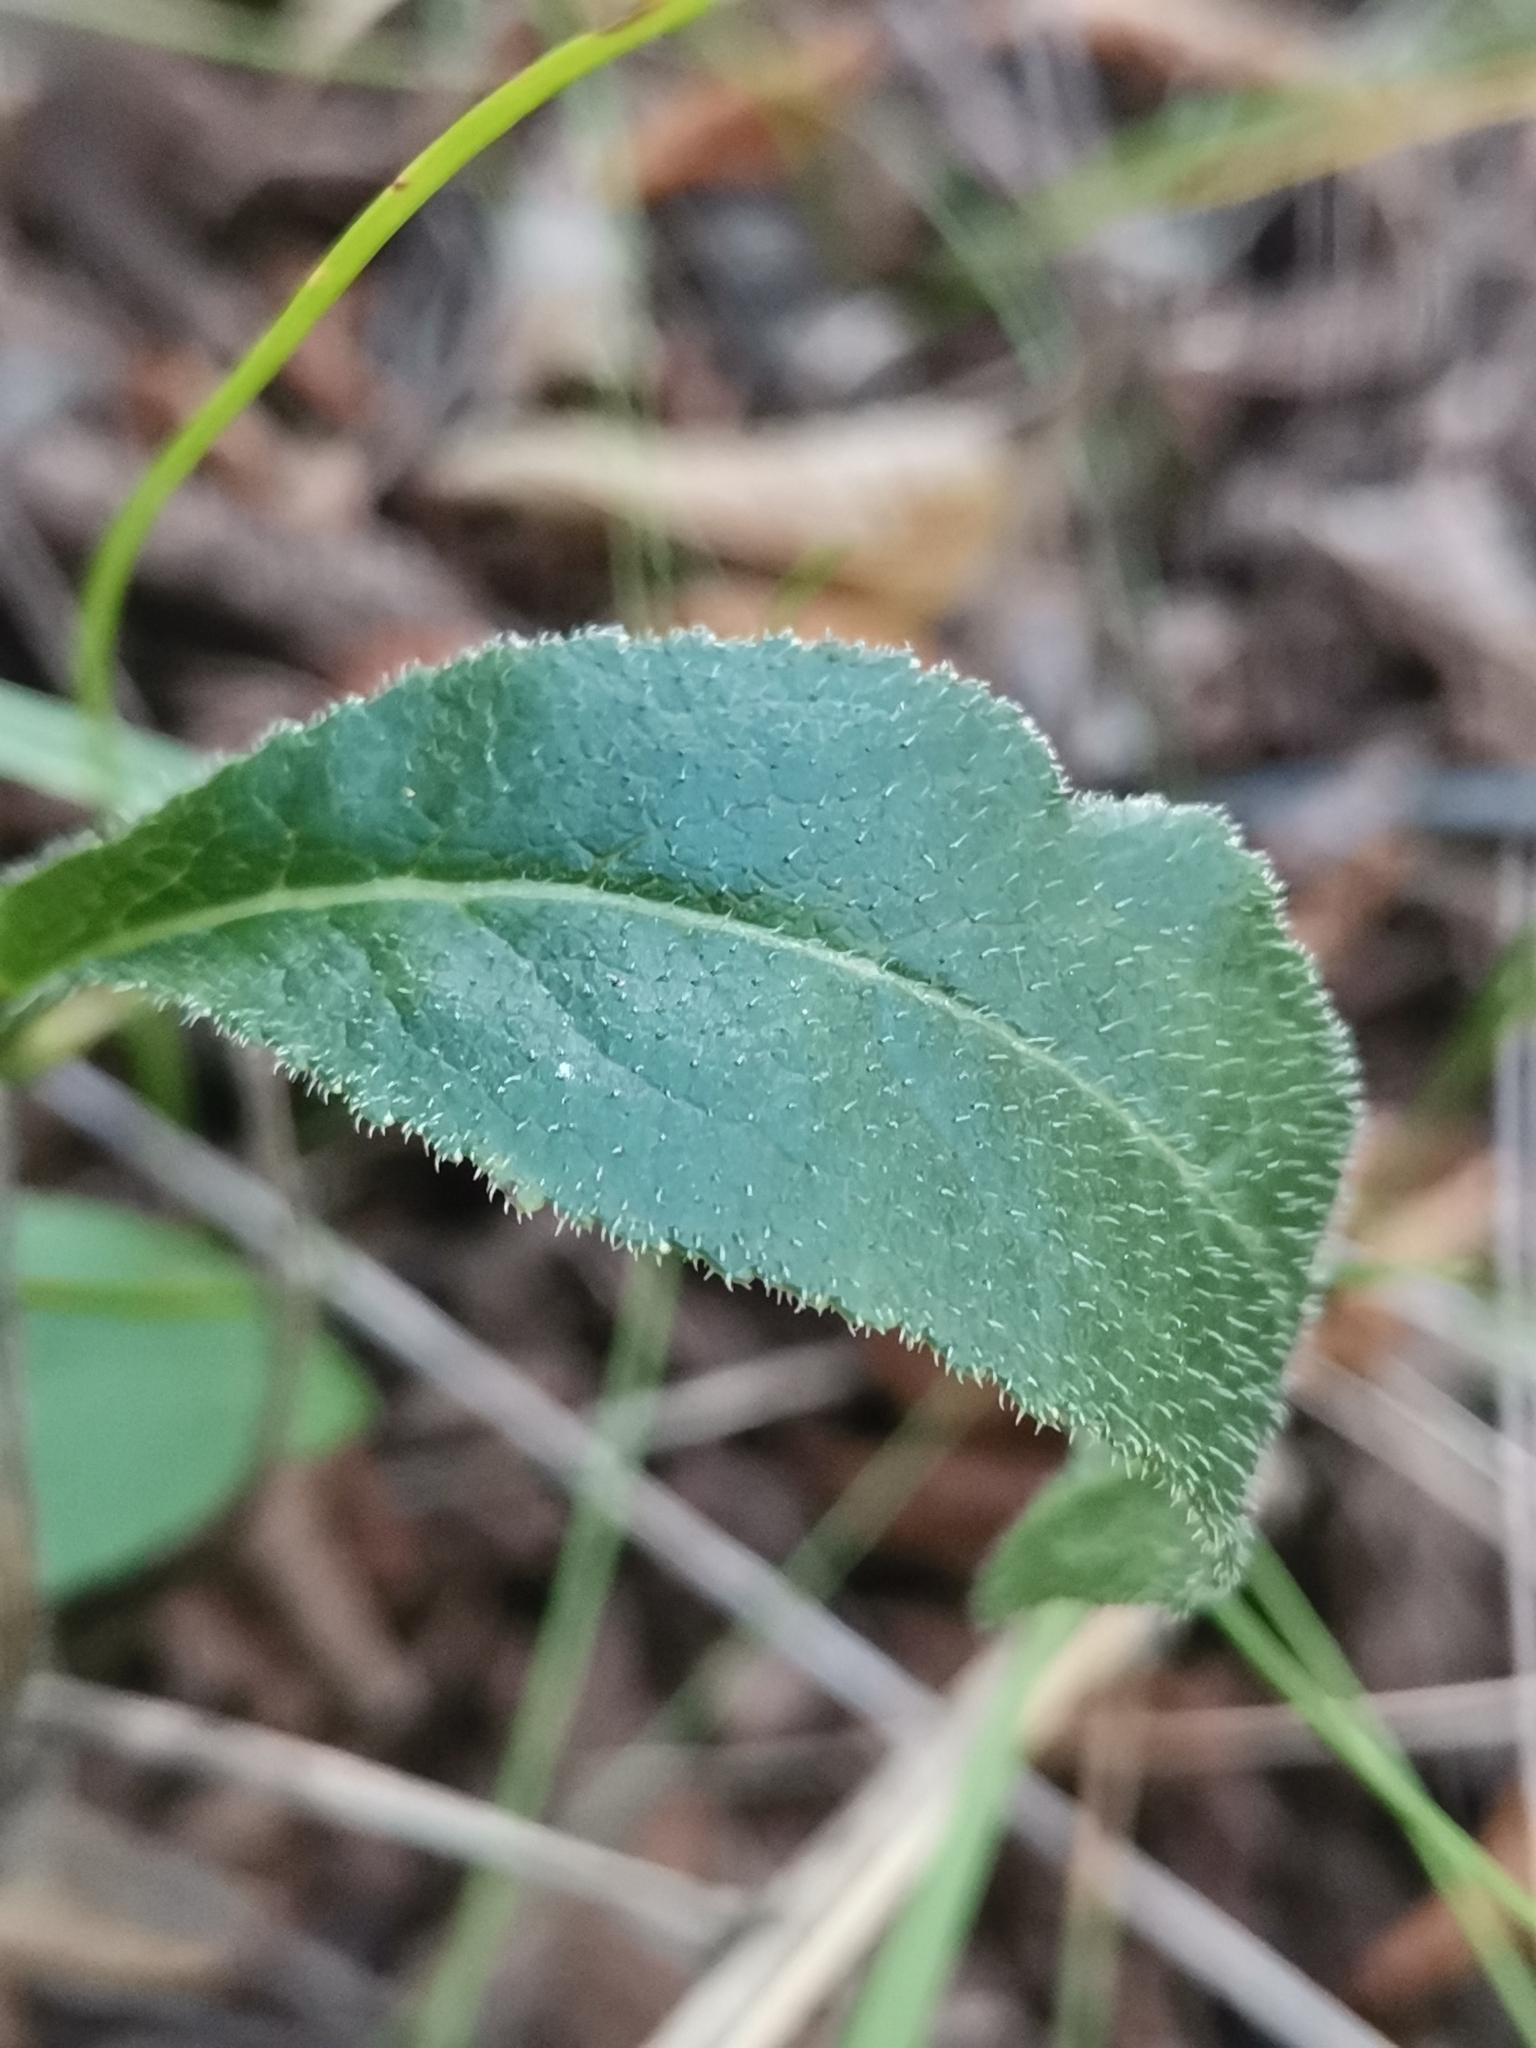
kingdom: Plantae
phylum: Tracheophyta
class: Magnoliopsida
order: Asterales
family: Campanulaceae
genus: Campanula
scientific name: Campanula glomerata
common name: Clustered bellflower
